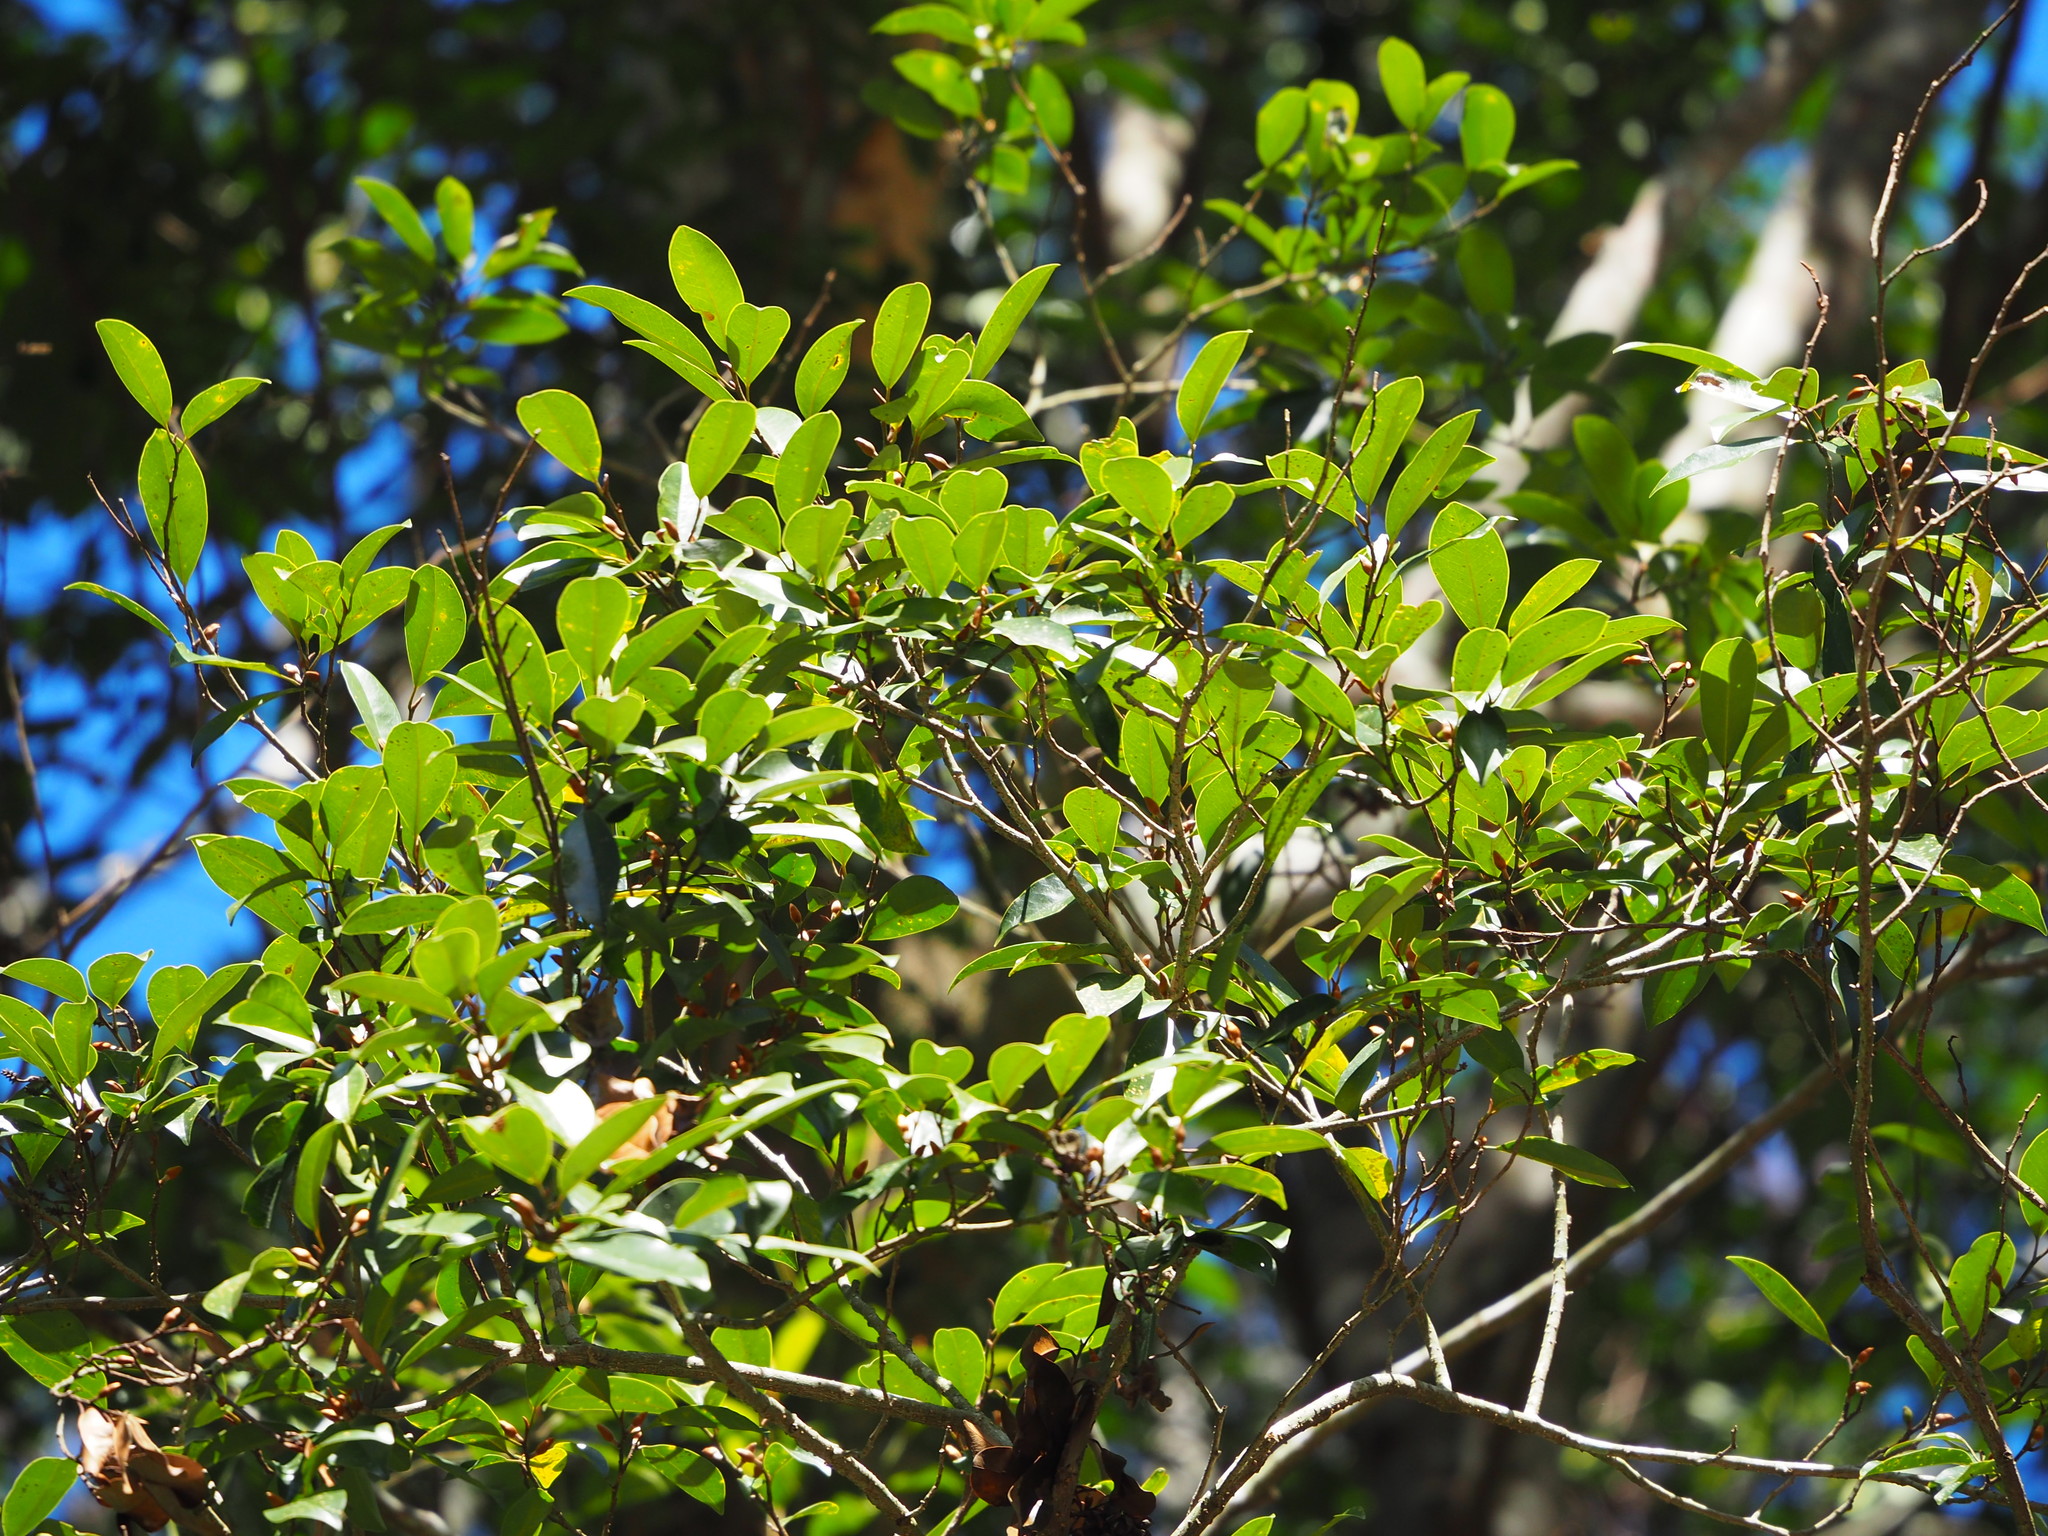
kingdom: Plantae
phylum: Tracheophyta
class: Magnoliopsida
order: Magnoliales
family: Magnoliaceae
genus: Magnolia
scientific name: Magnolia compressa
